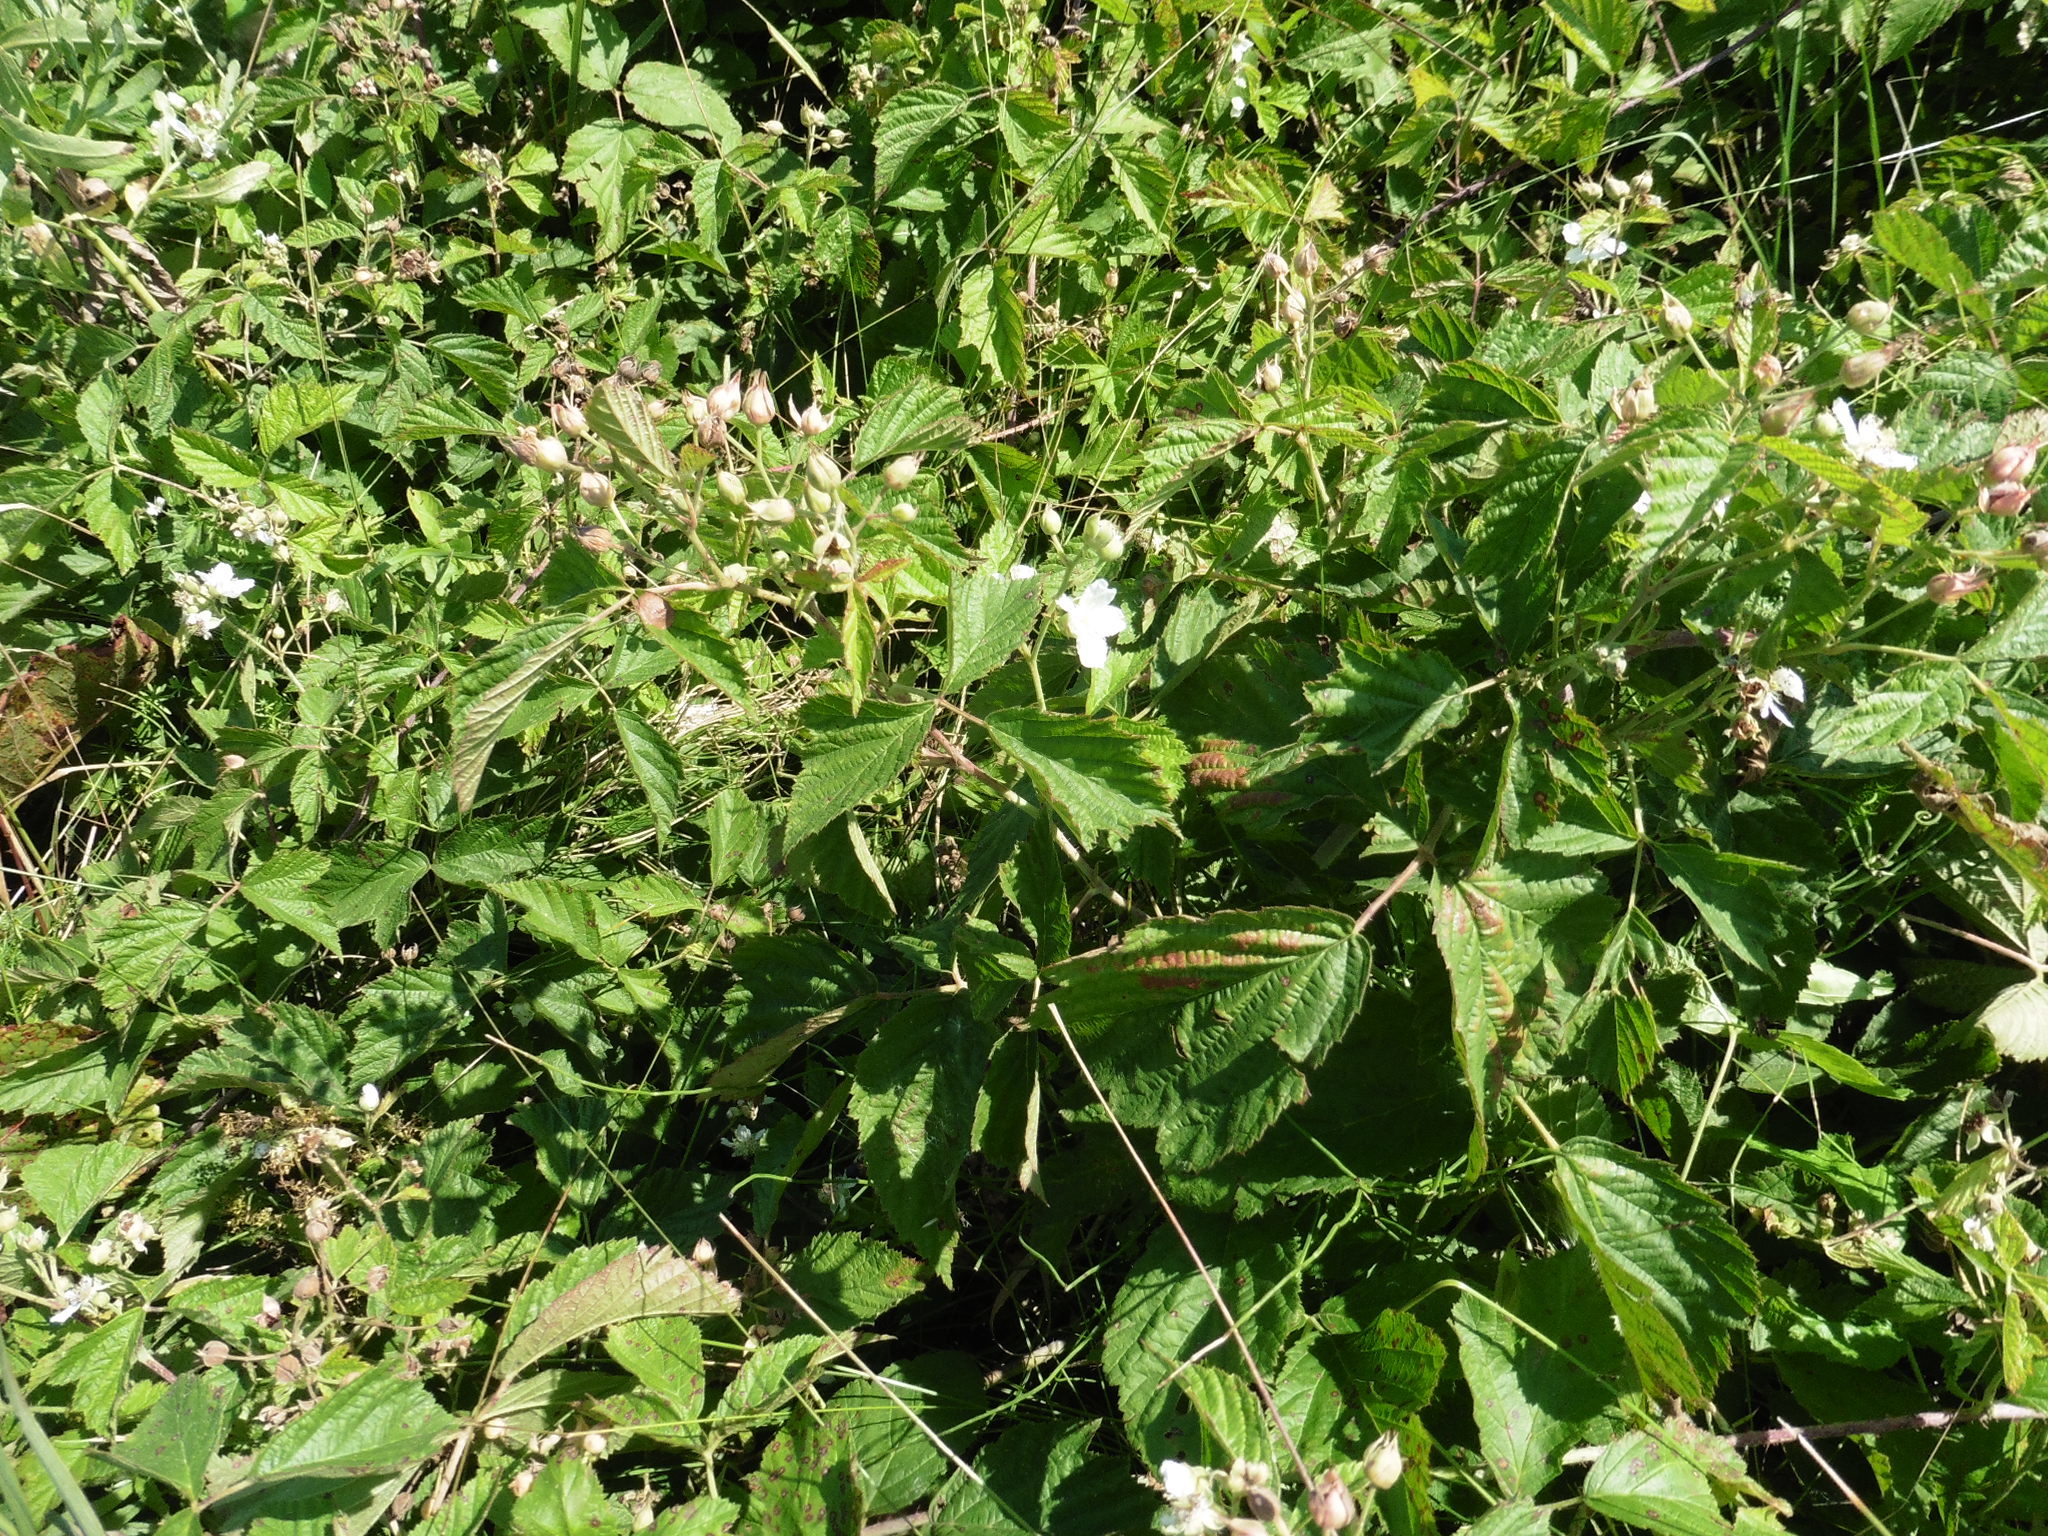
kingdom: Plantae
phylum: Tracheophyta
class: Magnoliopsida
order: Rosales
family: Rosaceae
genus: Rubus
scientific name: Rubus caesius
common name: Dewberry
